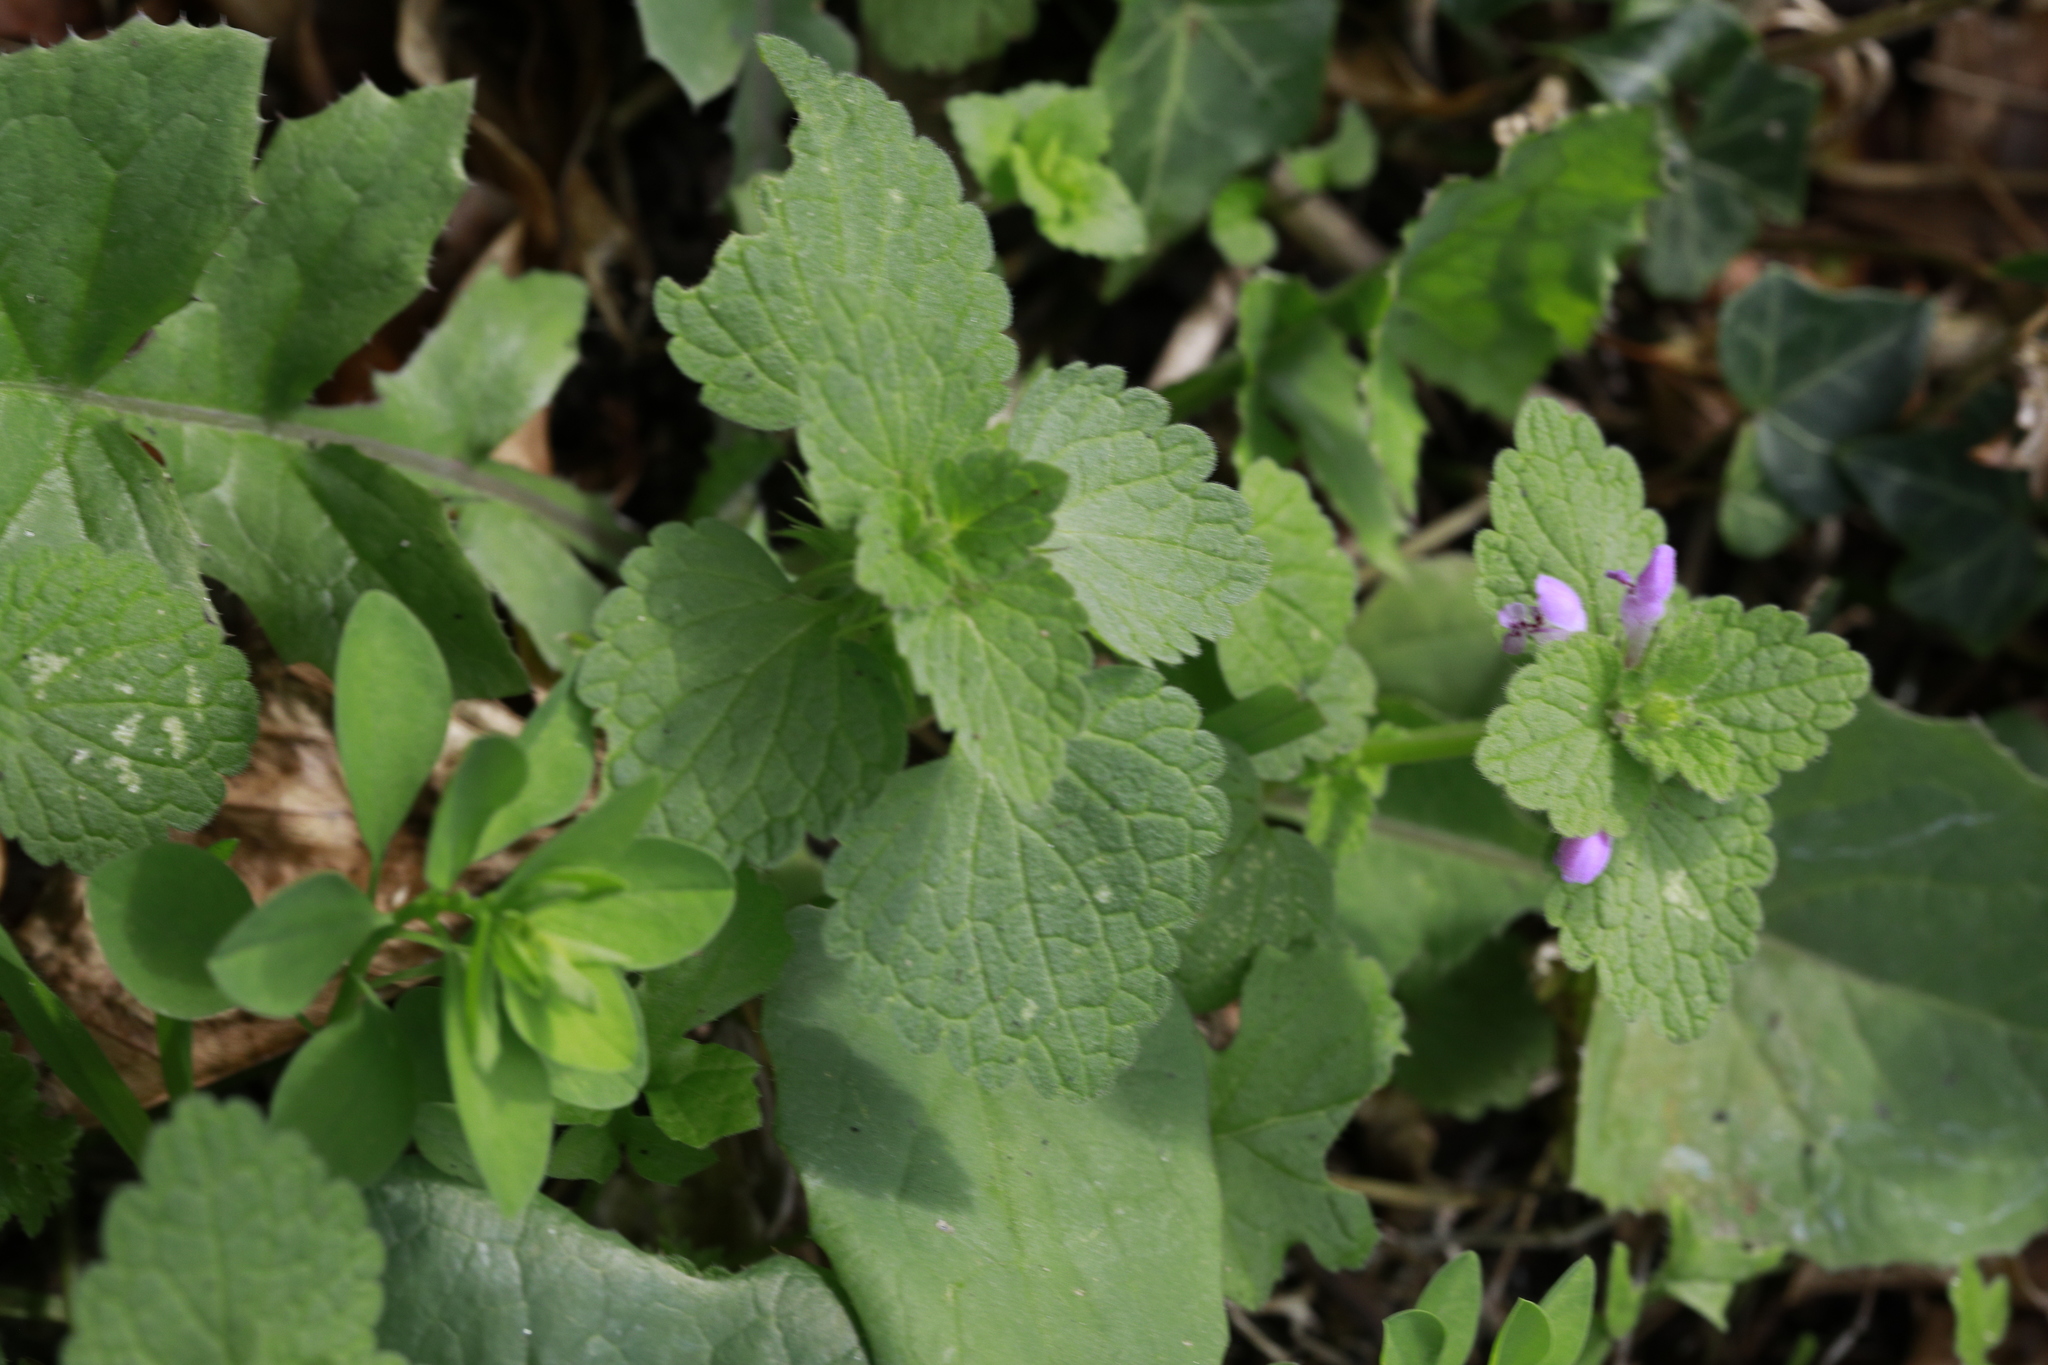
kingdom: Plantae
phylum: Tracheophyta
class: Magnoliopsida
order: Lamiales
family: Lamiaceae
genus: Lamium
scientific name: Lamium purpureum
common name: Red dead-nettle
